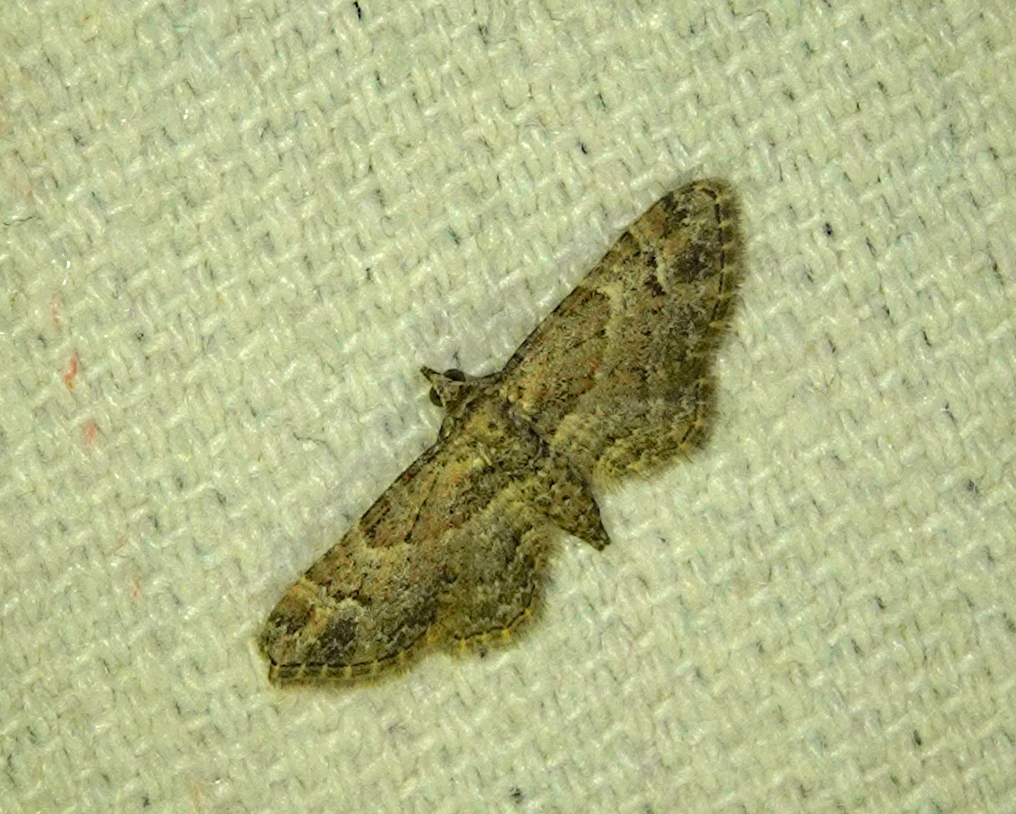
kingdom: Animalia
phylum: Arthropoda
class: Insecta
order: Lepidoptera
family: Geometridae
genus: Gymnoscelis
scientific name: Gymnoscelis rufifasciata
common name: Double-striped pug
